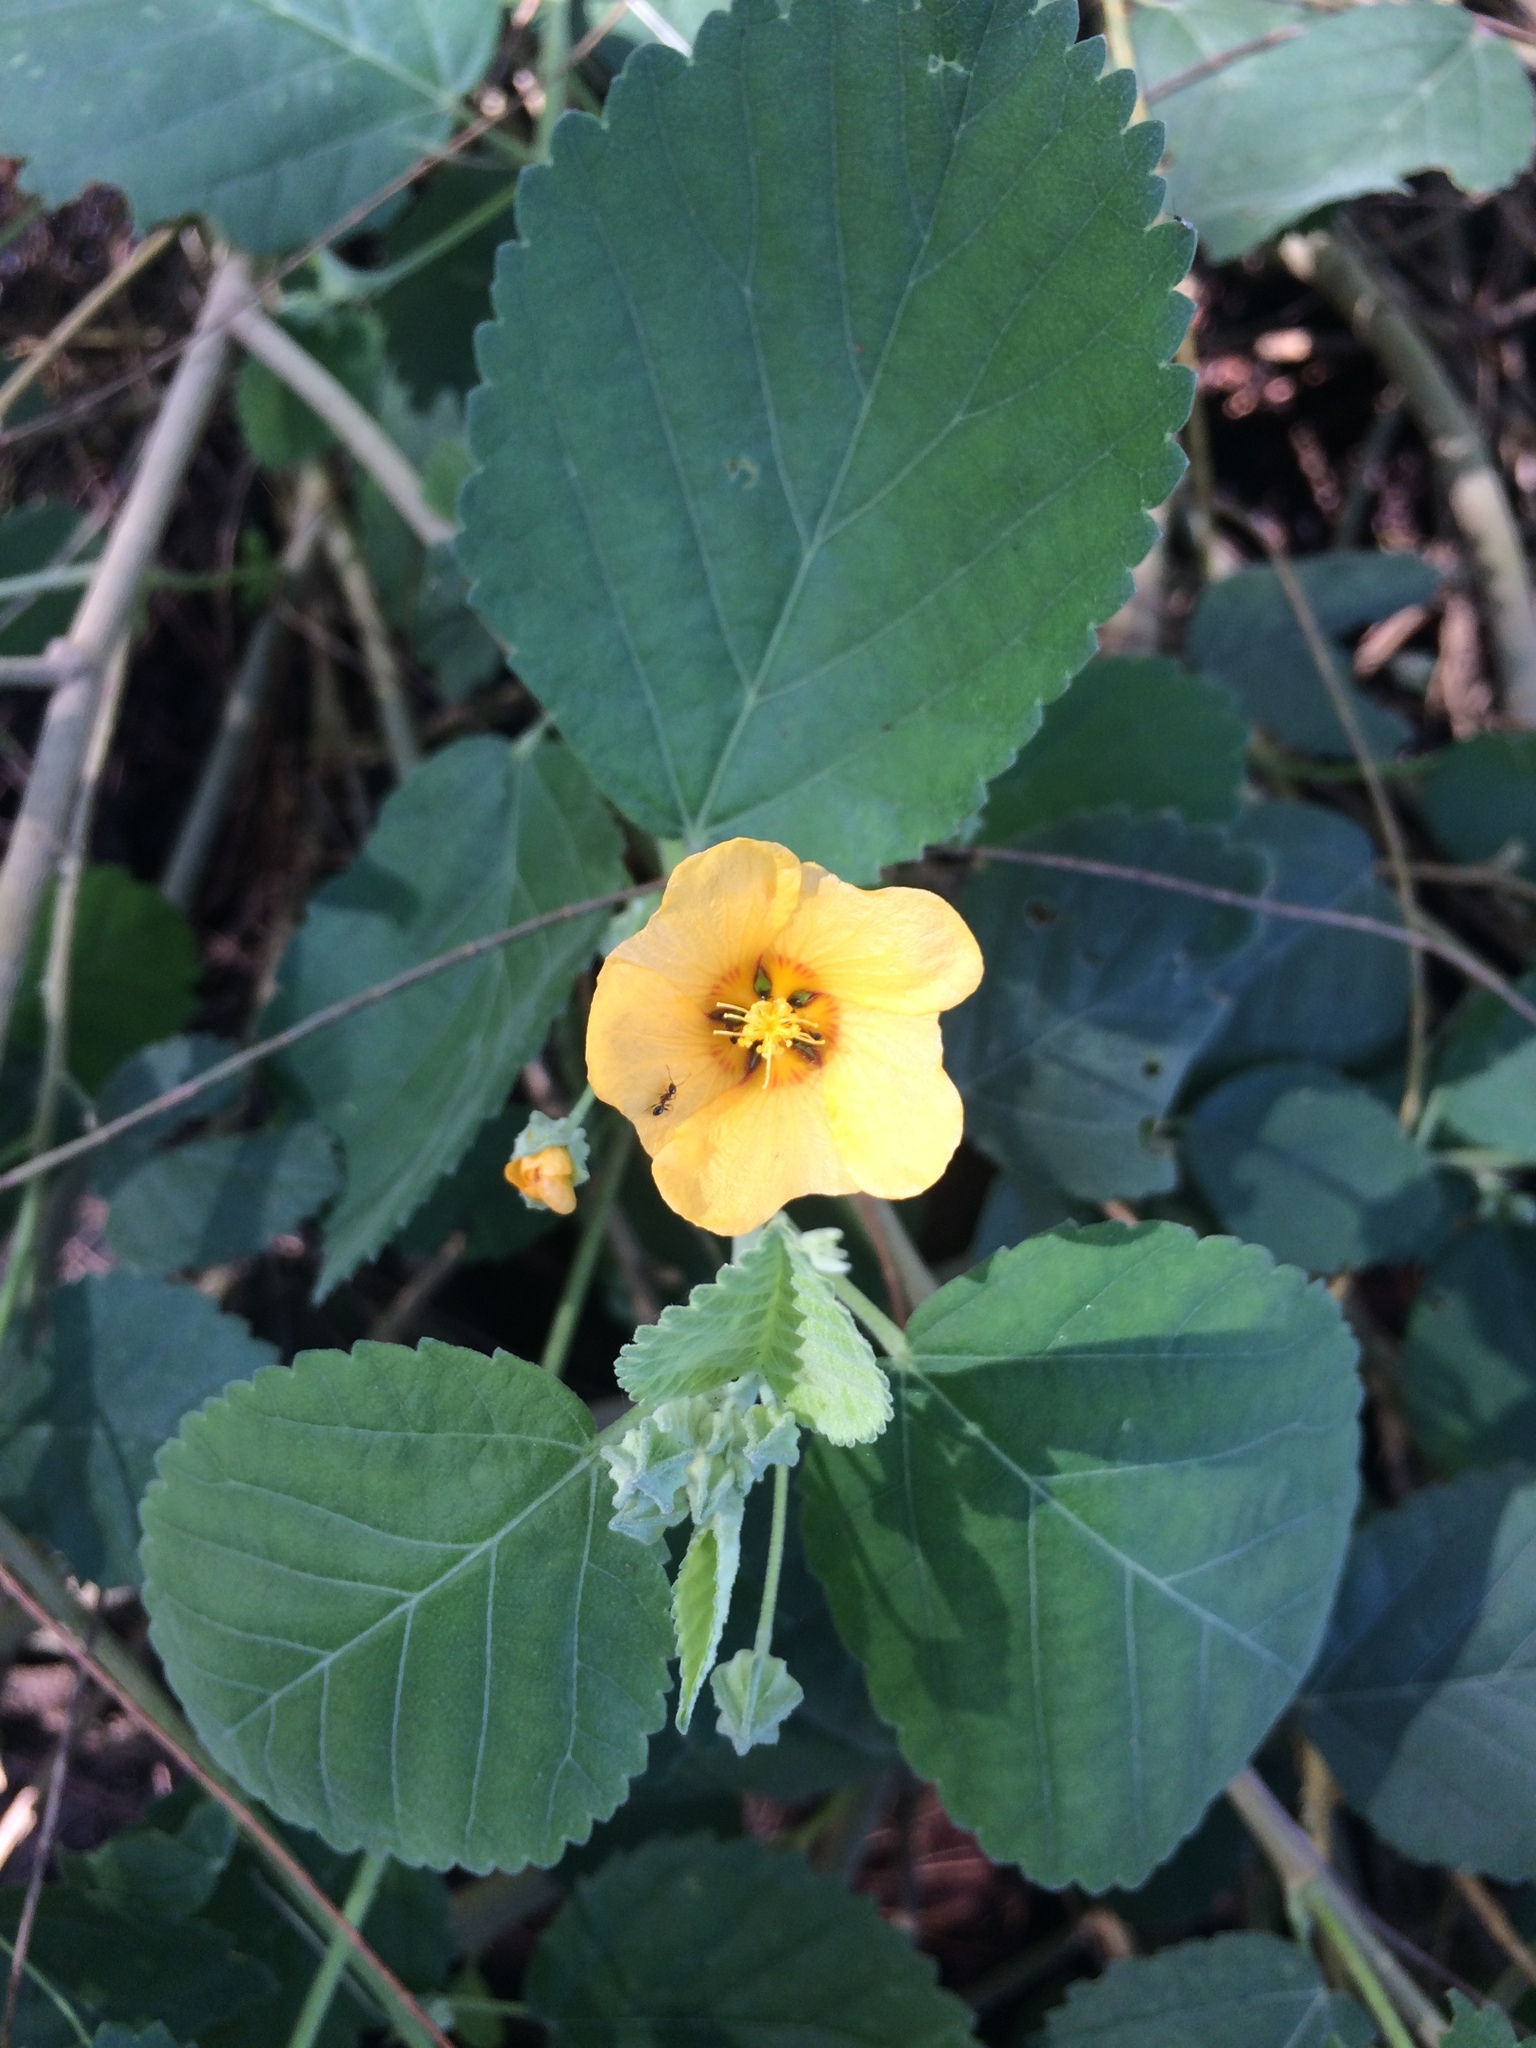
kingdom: Plantae
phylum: Tracheophyta
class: Magnoliopsida
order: Malvales
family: Malvaceae
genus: Sida
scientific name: Sida fallax
